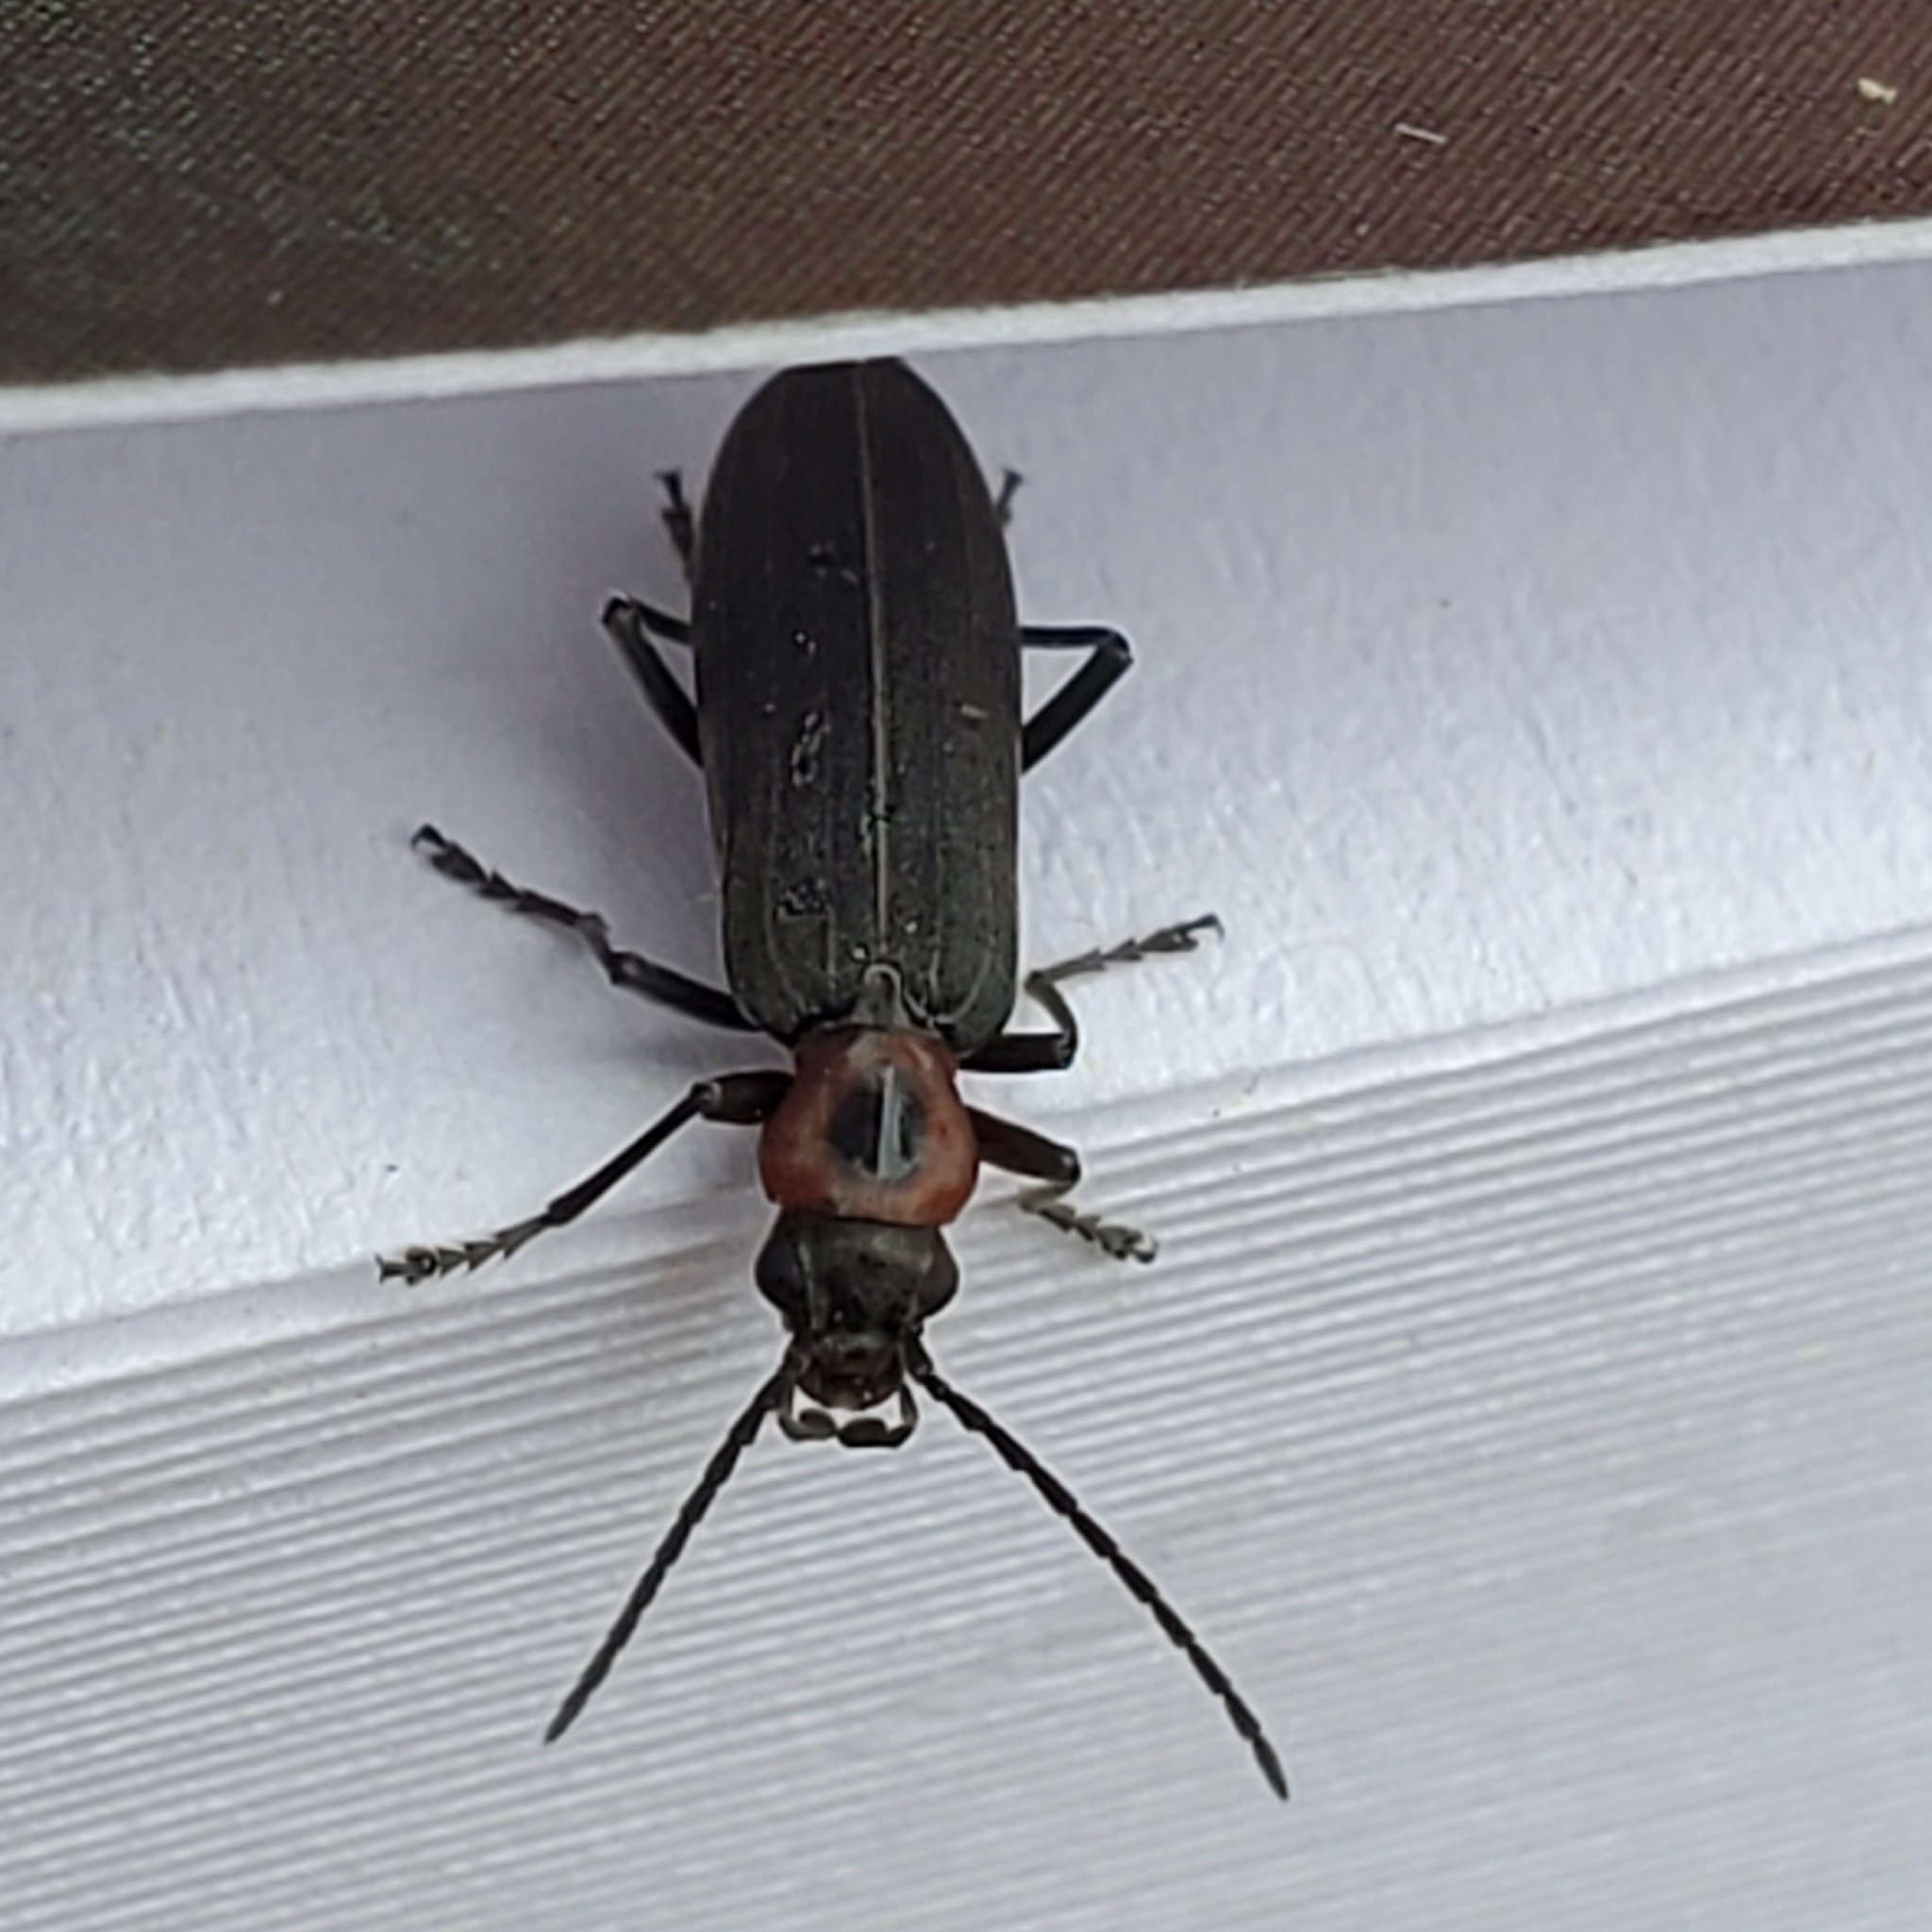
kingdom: Animalia
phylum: Arthropoda
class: Insecta
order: Coleoptera
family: Oedemeridae
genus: Ischnomera
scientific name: Ischnomera
